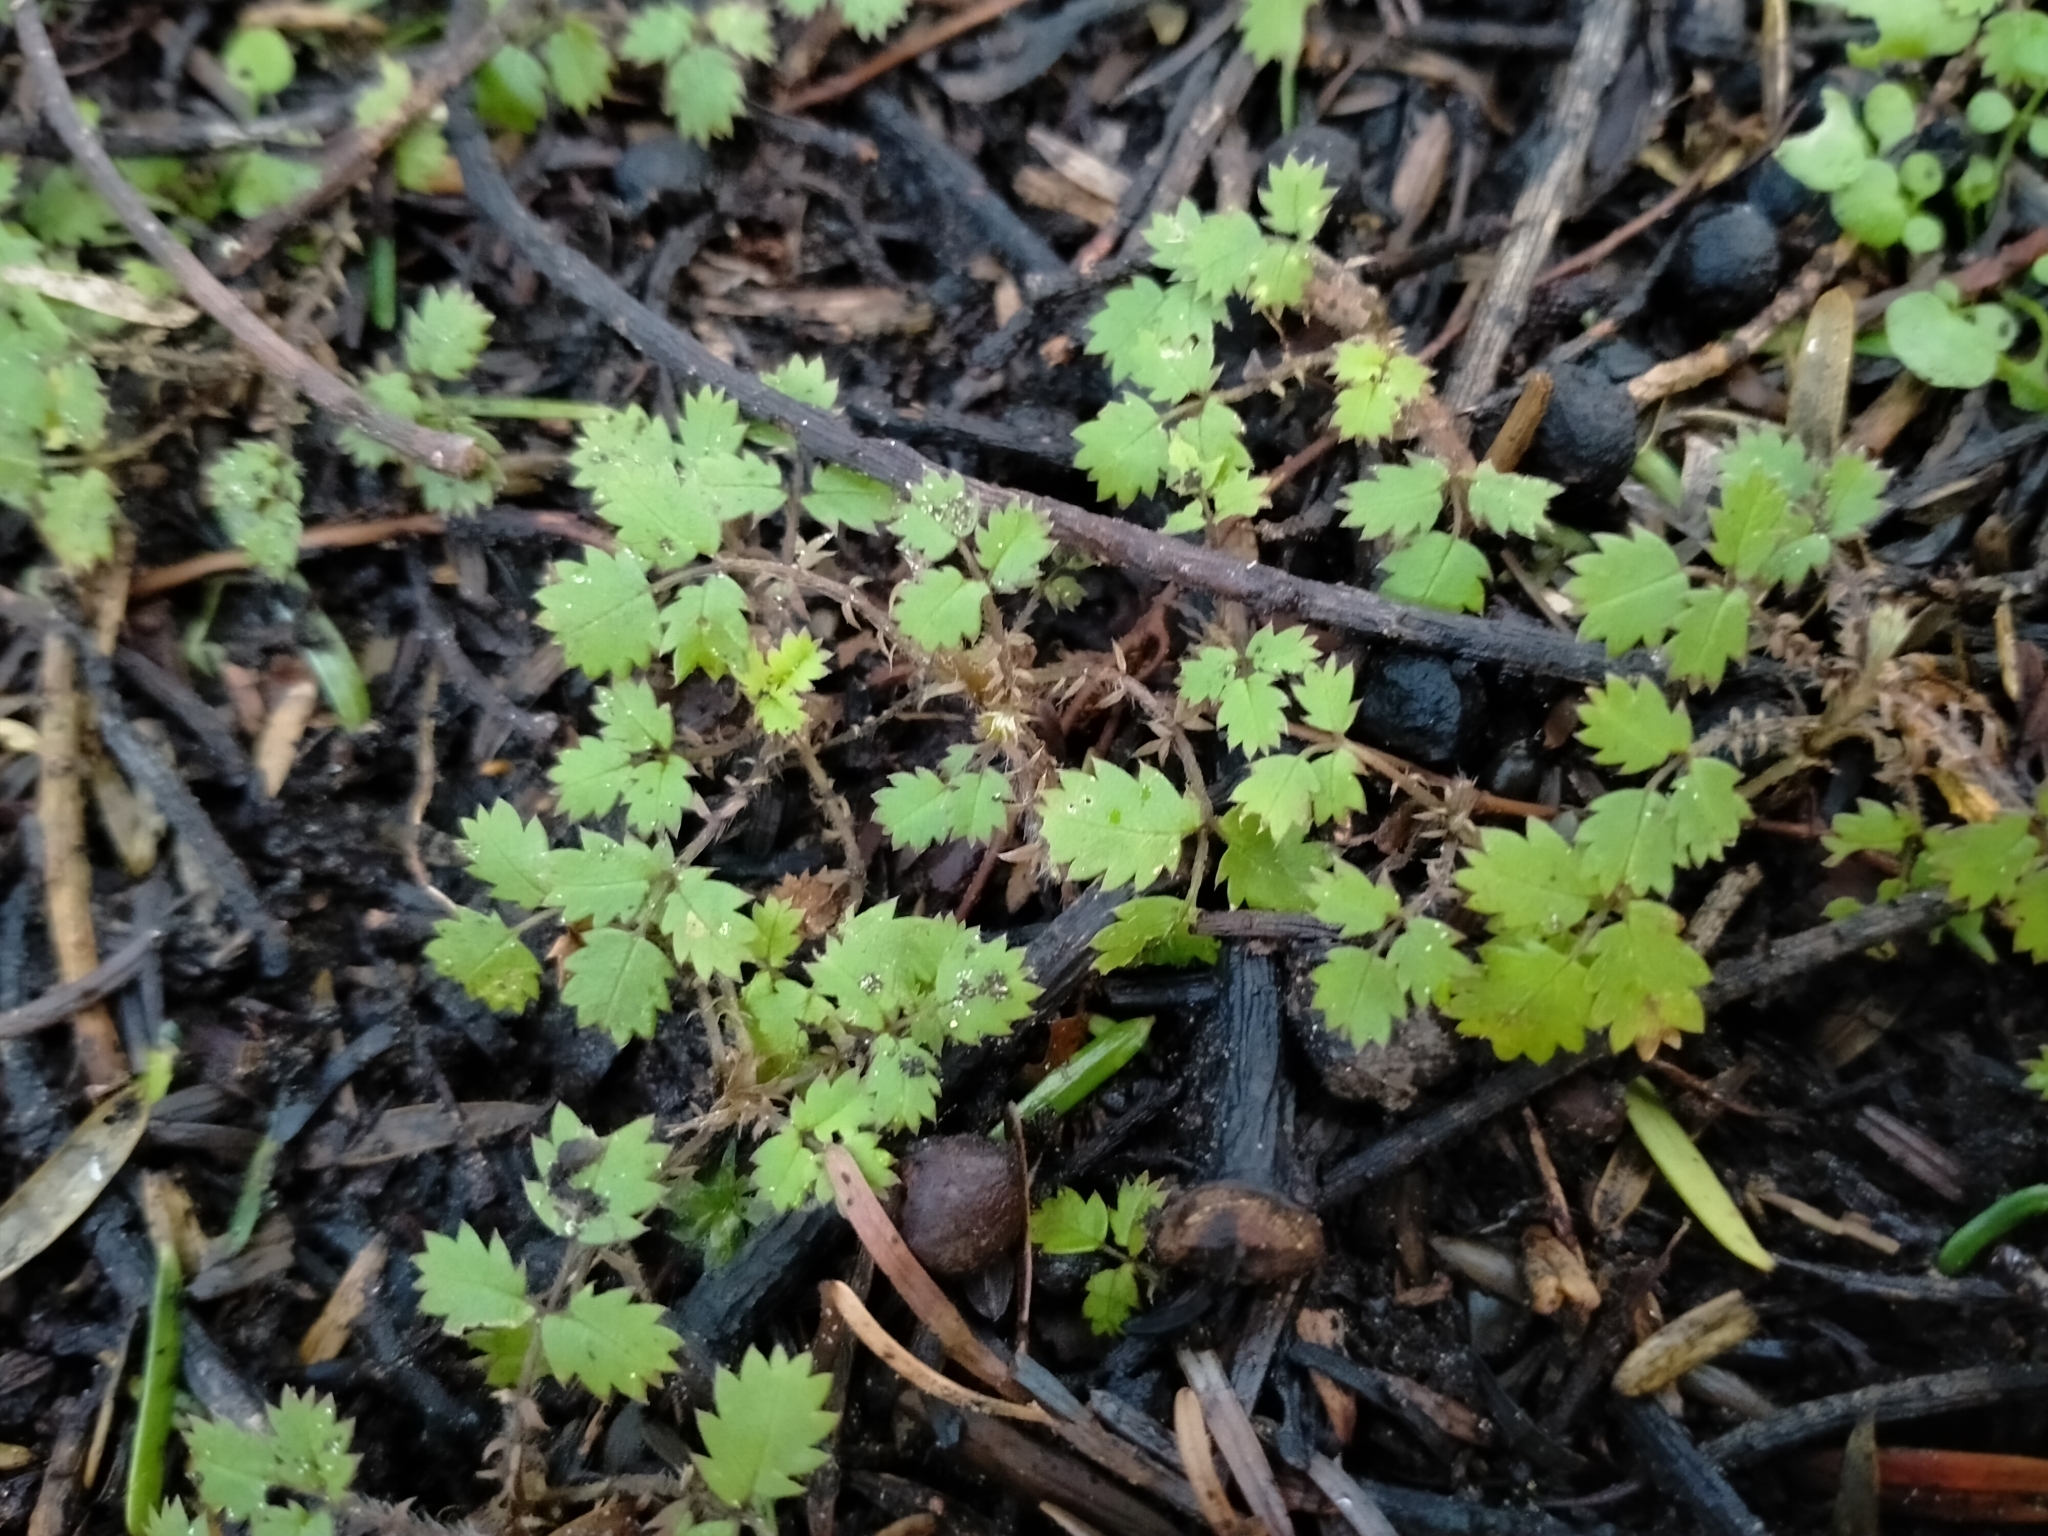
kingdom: Plantae
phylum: Tracheophyta
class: Magnoliopsida
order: Rosales
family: Rosaceae
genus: Acaena
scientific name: Acaena juvenca
